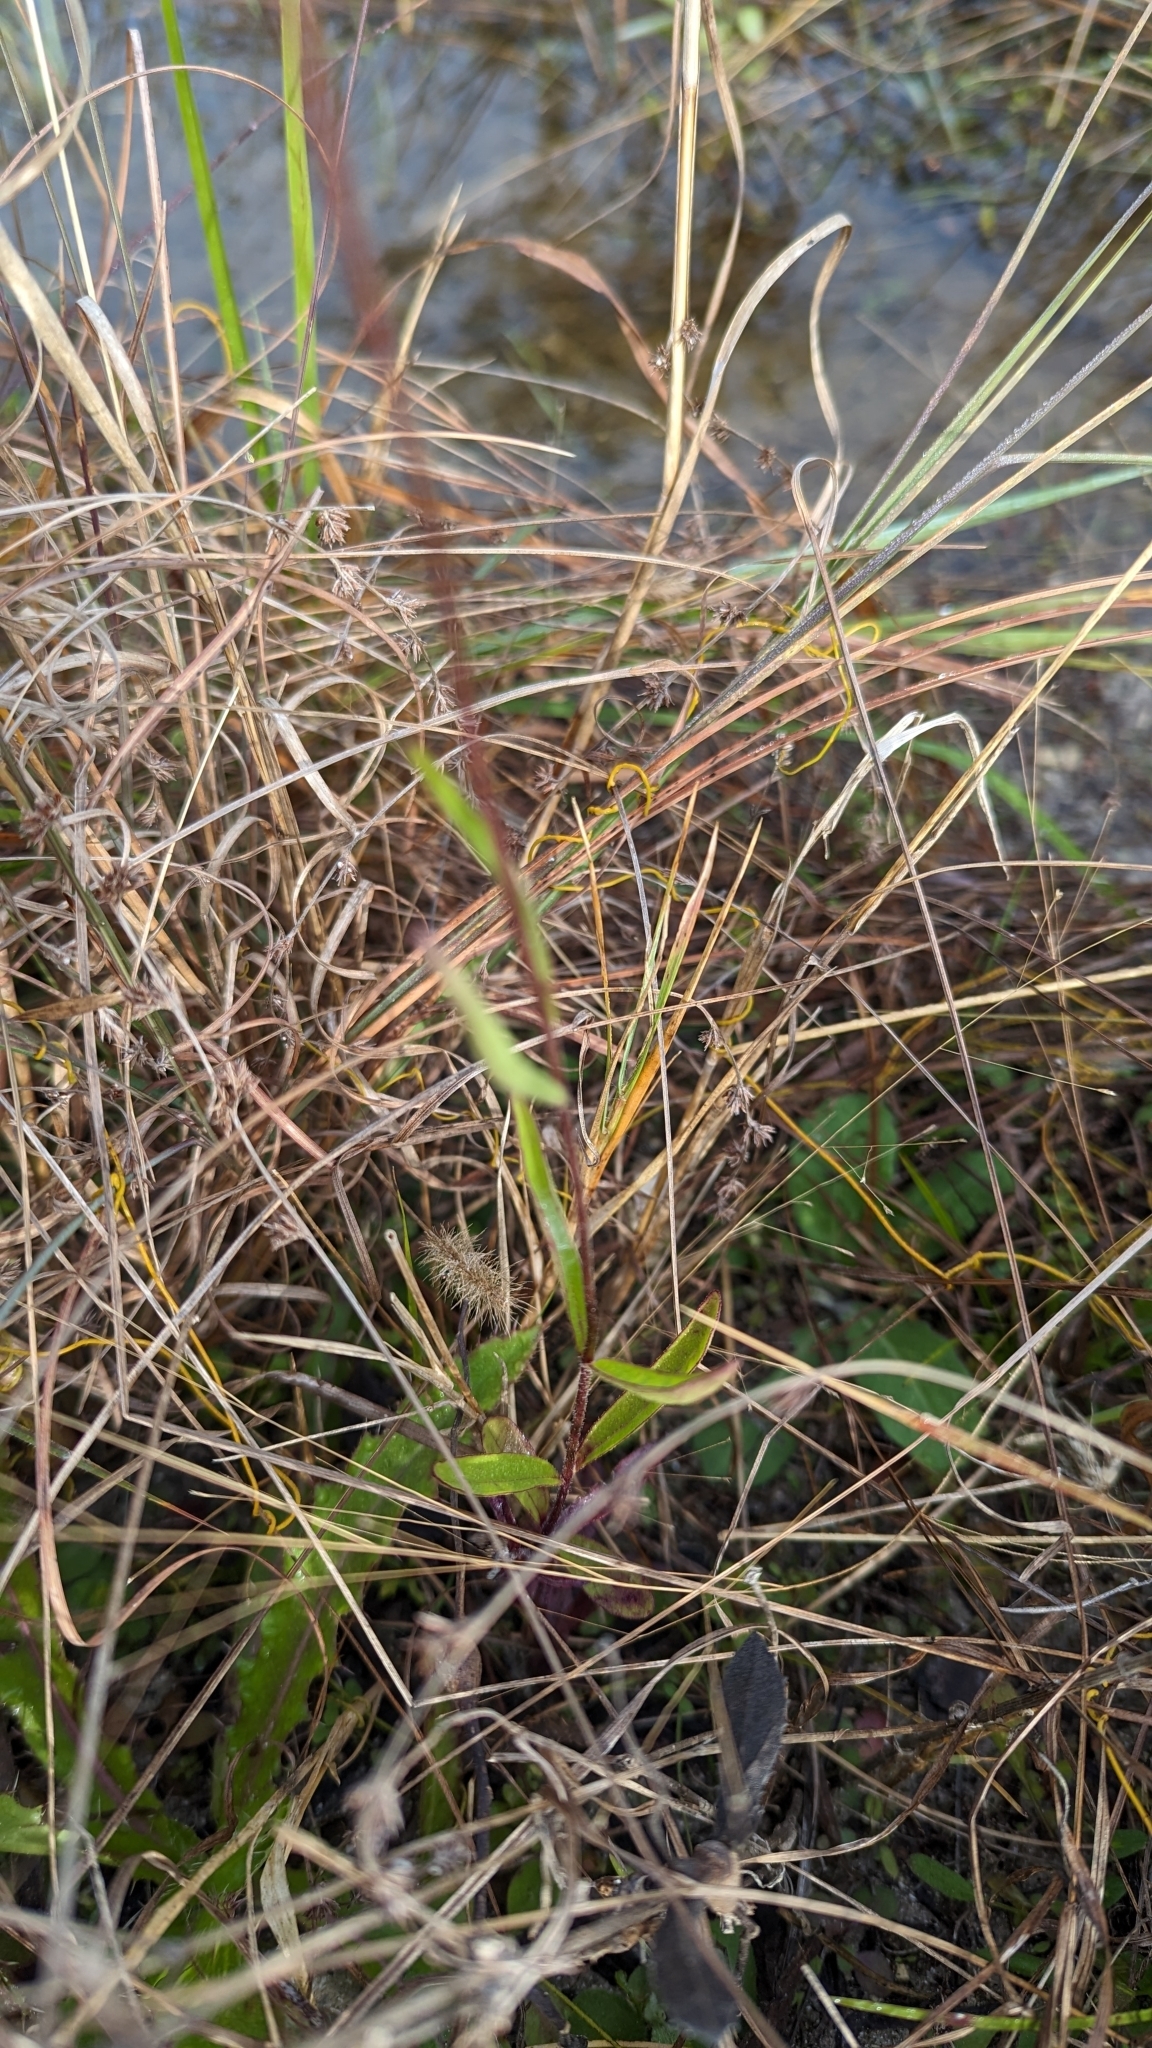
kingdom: Plantae
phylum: Tracheophyta
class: Magnoliopsida
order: Lamiales
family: Orobanchaceae
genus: Buchnera
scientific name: Buchnera floridana
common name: Florida bluehearts
